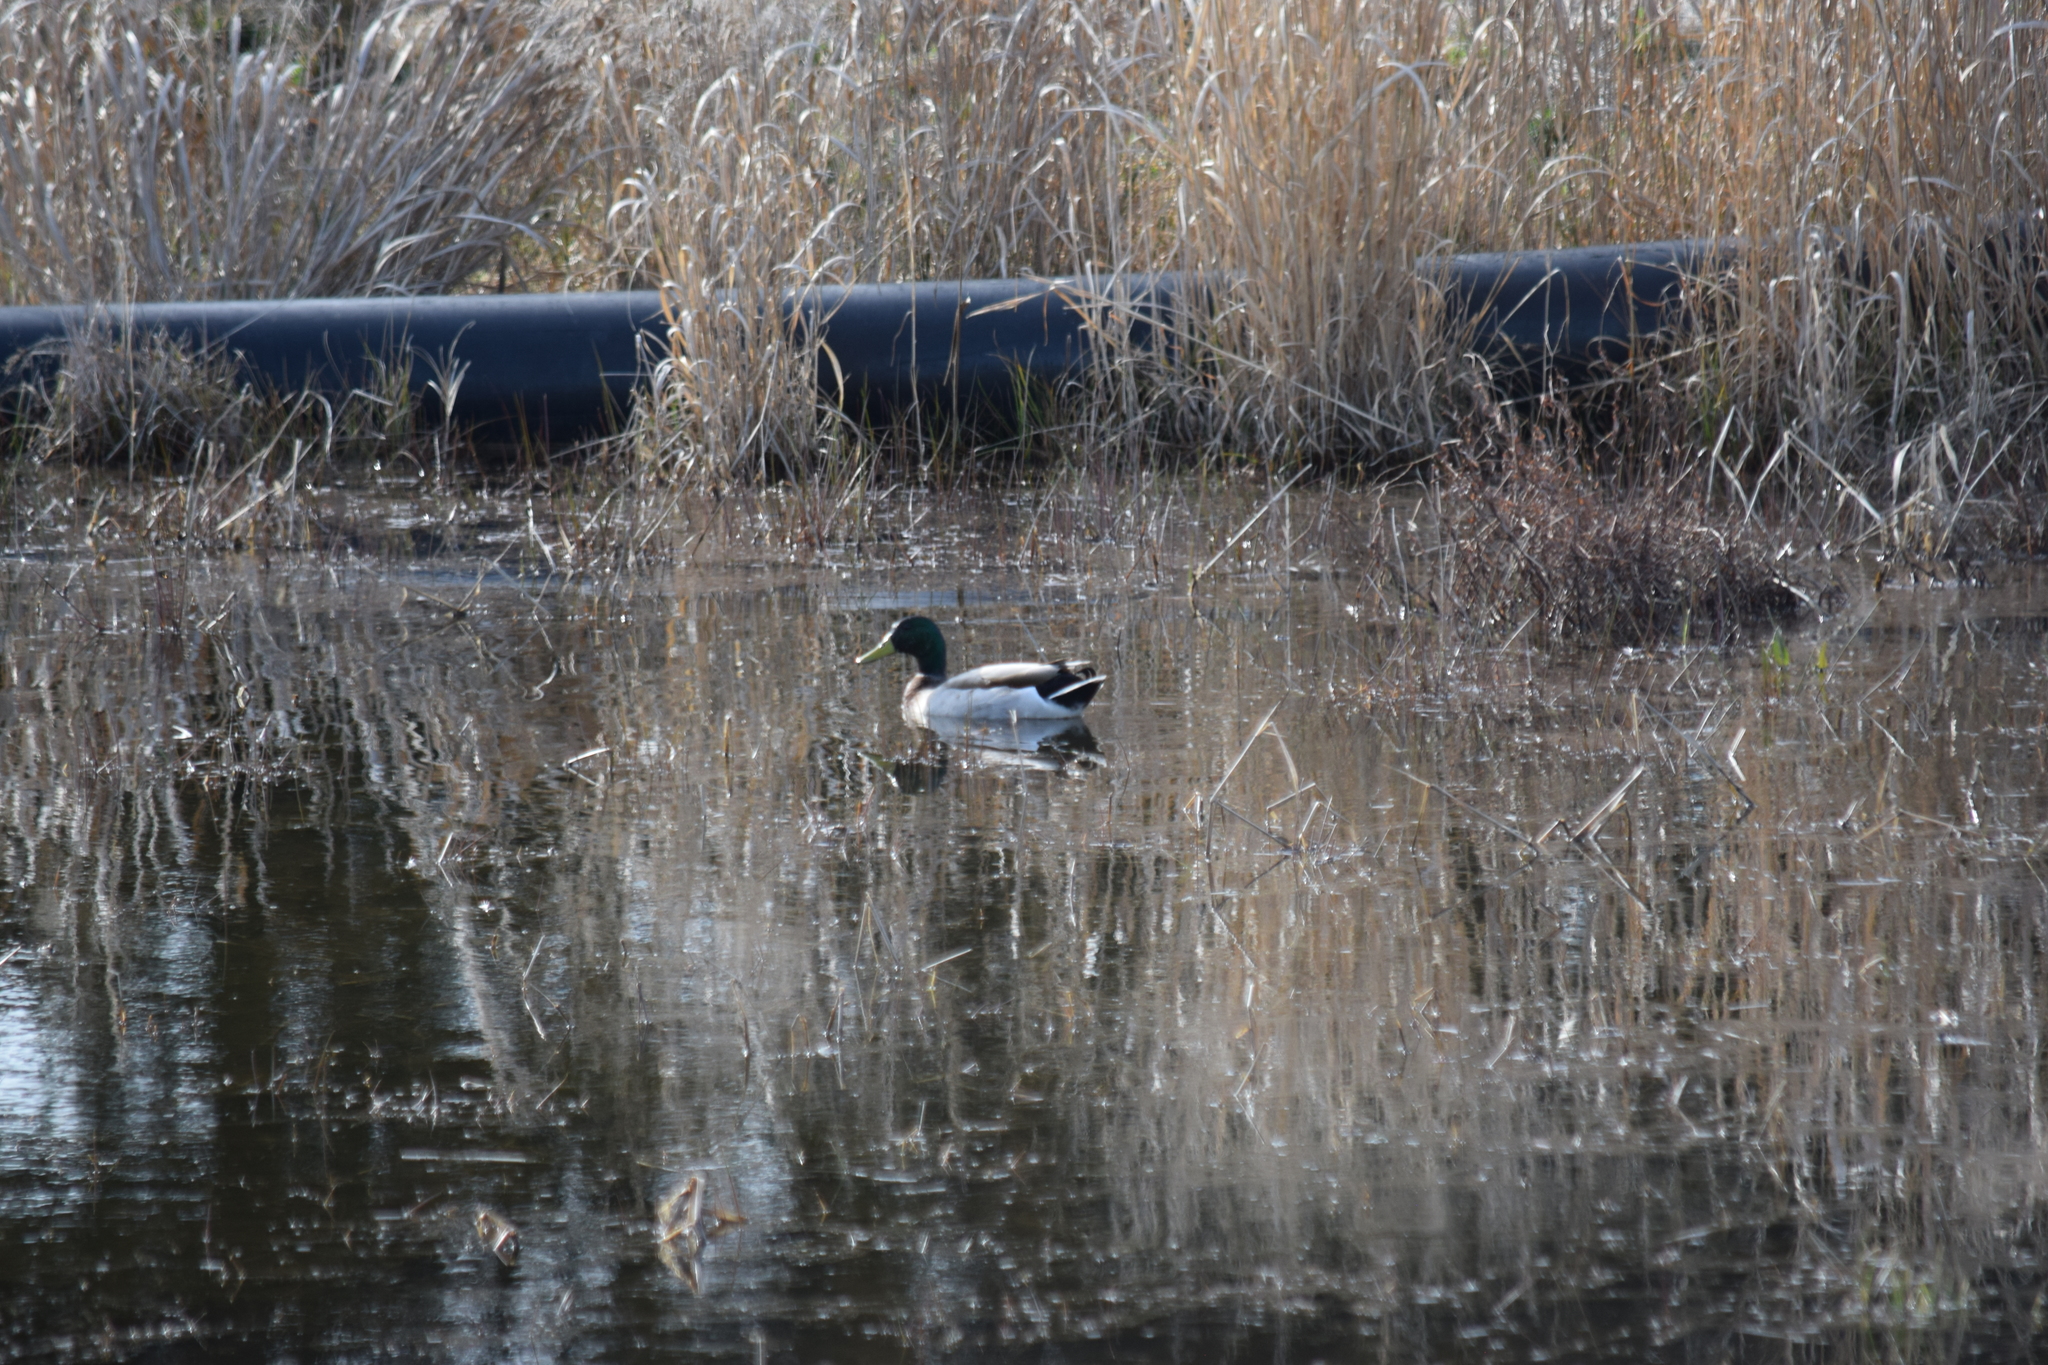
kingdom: Animalia
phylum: Chordata
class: Aves
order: Anseriformes
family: Anatidae
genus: Anas
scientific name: Anas platyrhynchos
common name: Mallard
